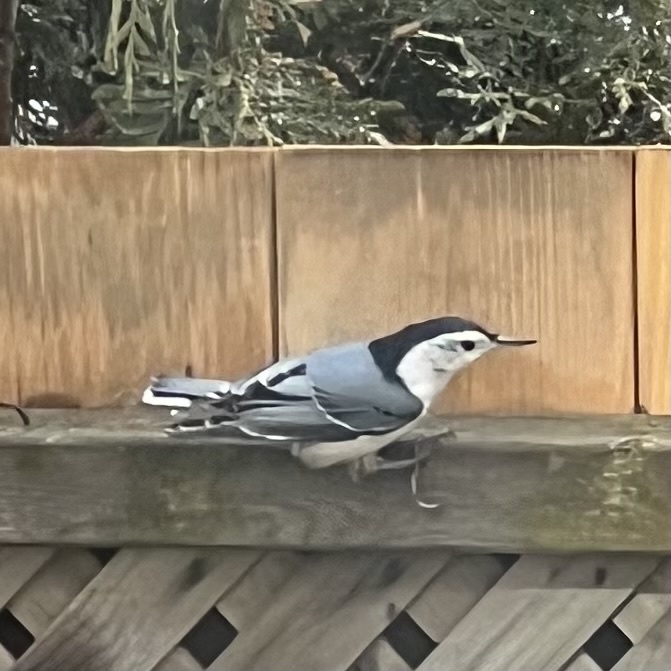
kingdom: Animalia
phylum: Chordata
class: Aves
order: Passeriformes
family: Sittidae
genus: Sitta
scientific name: Sitta carolinensis
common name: White-breasted nuthatch
